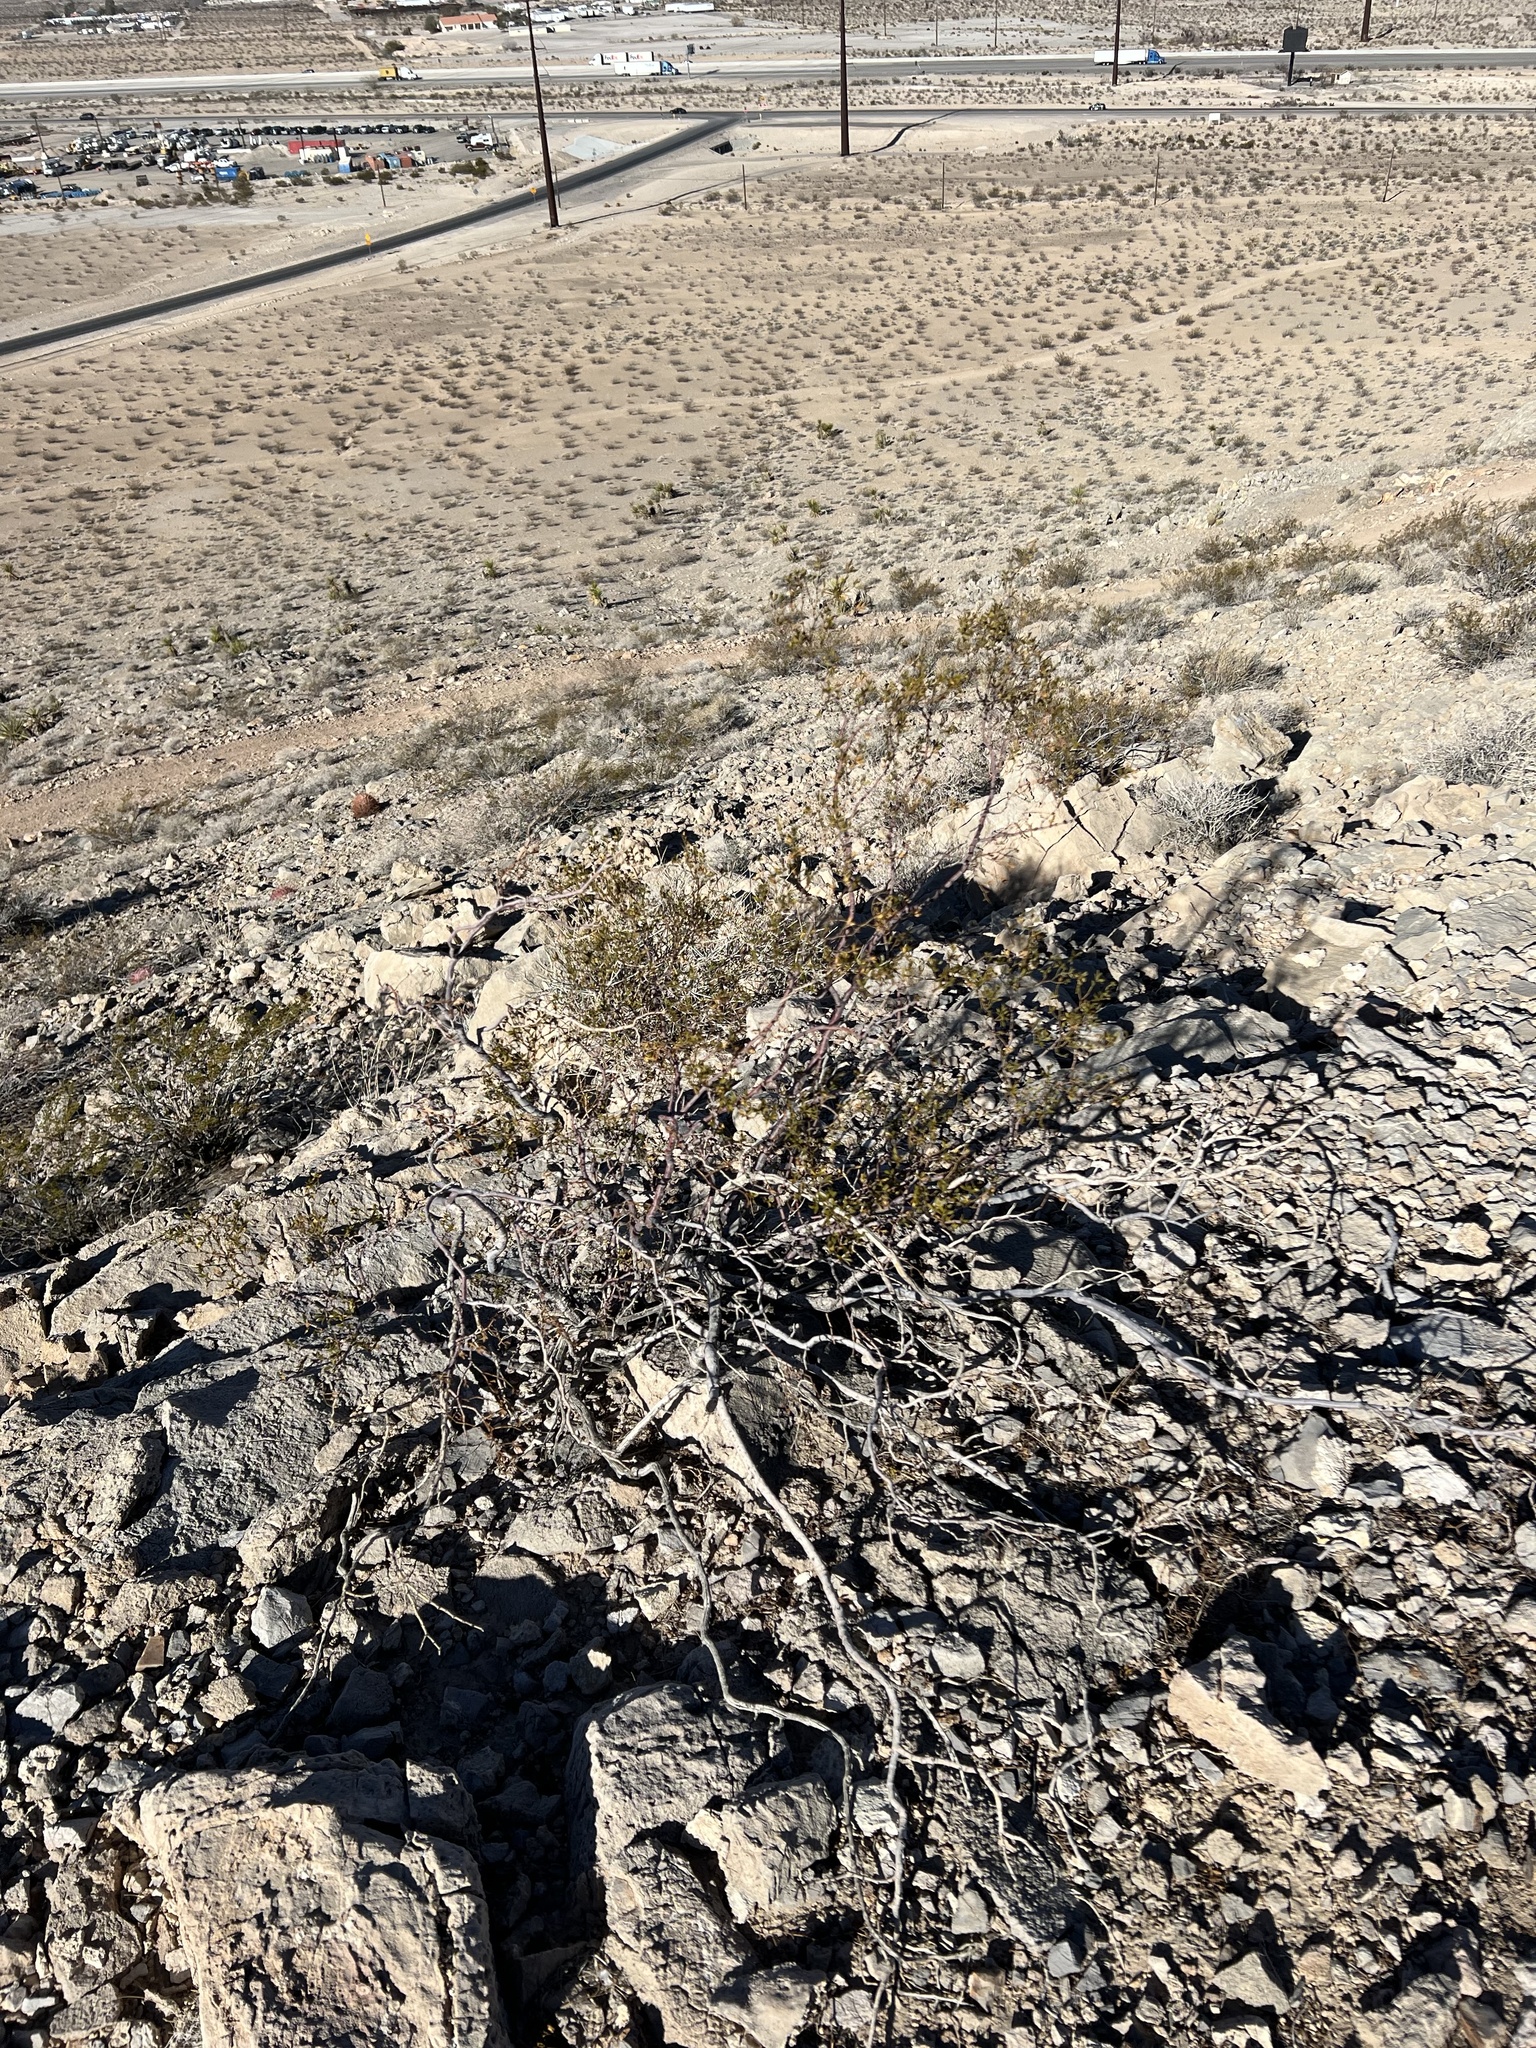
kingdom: Plantae
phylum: Tracheophyta
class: Magnoliopsida
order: Zygophyllales
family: Zygophyllaceae
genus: Larrea
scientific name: Larrea tridentata
